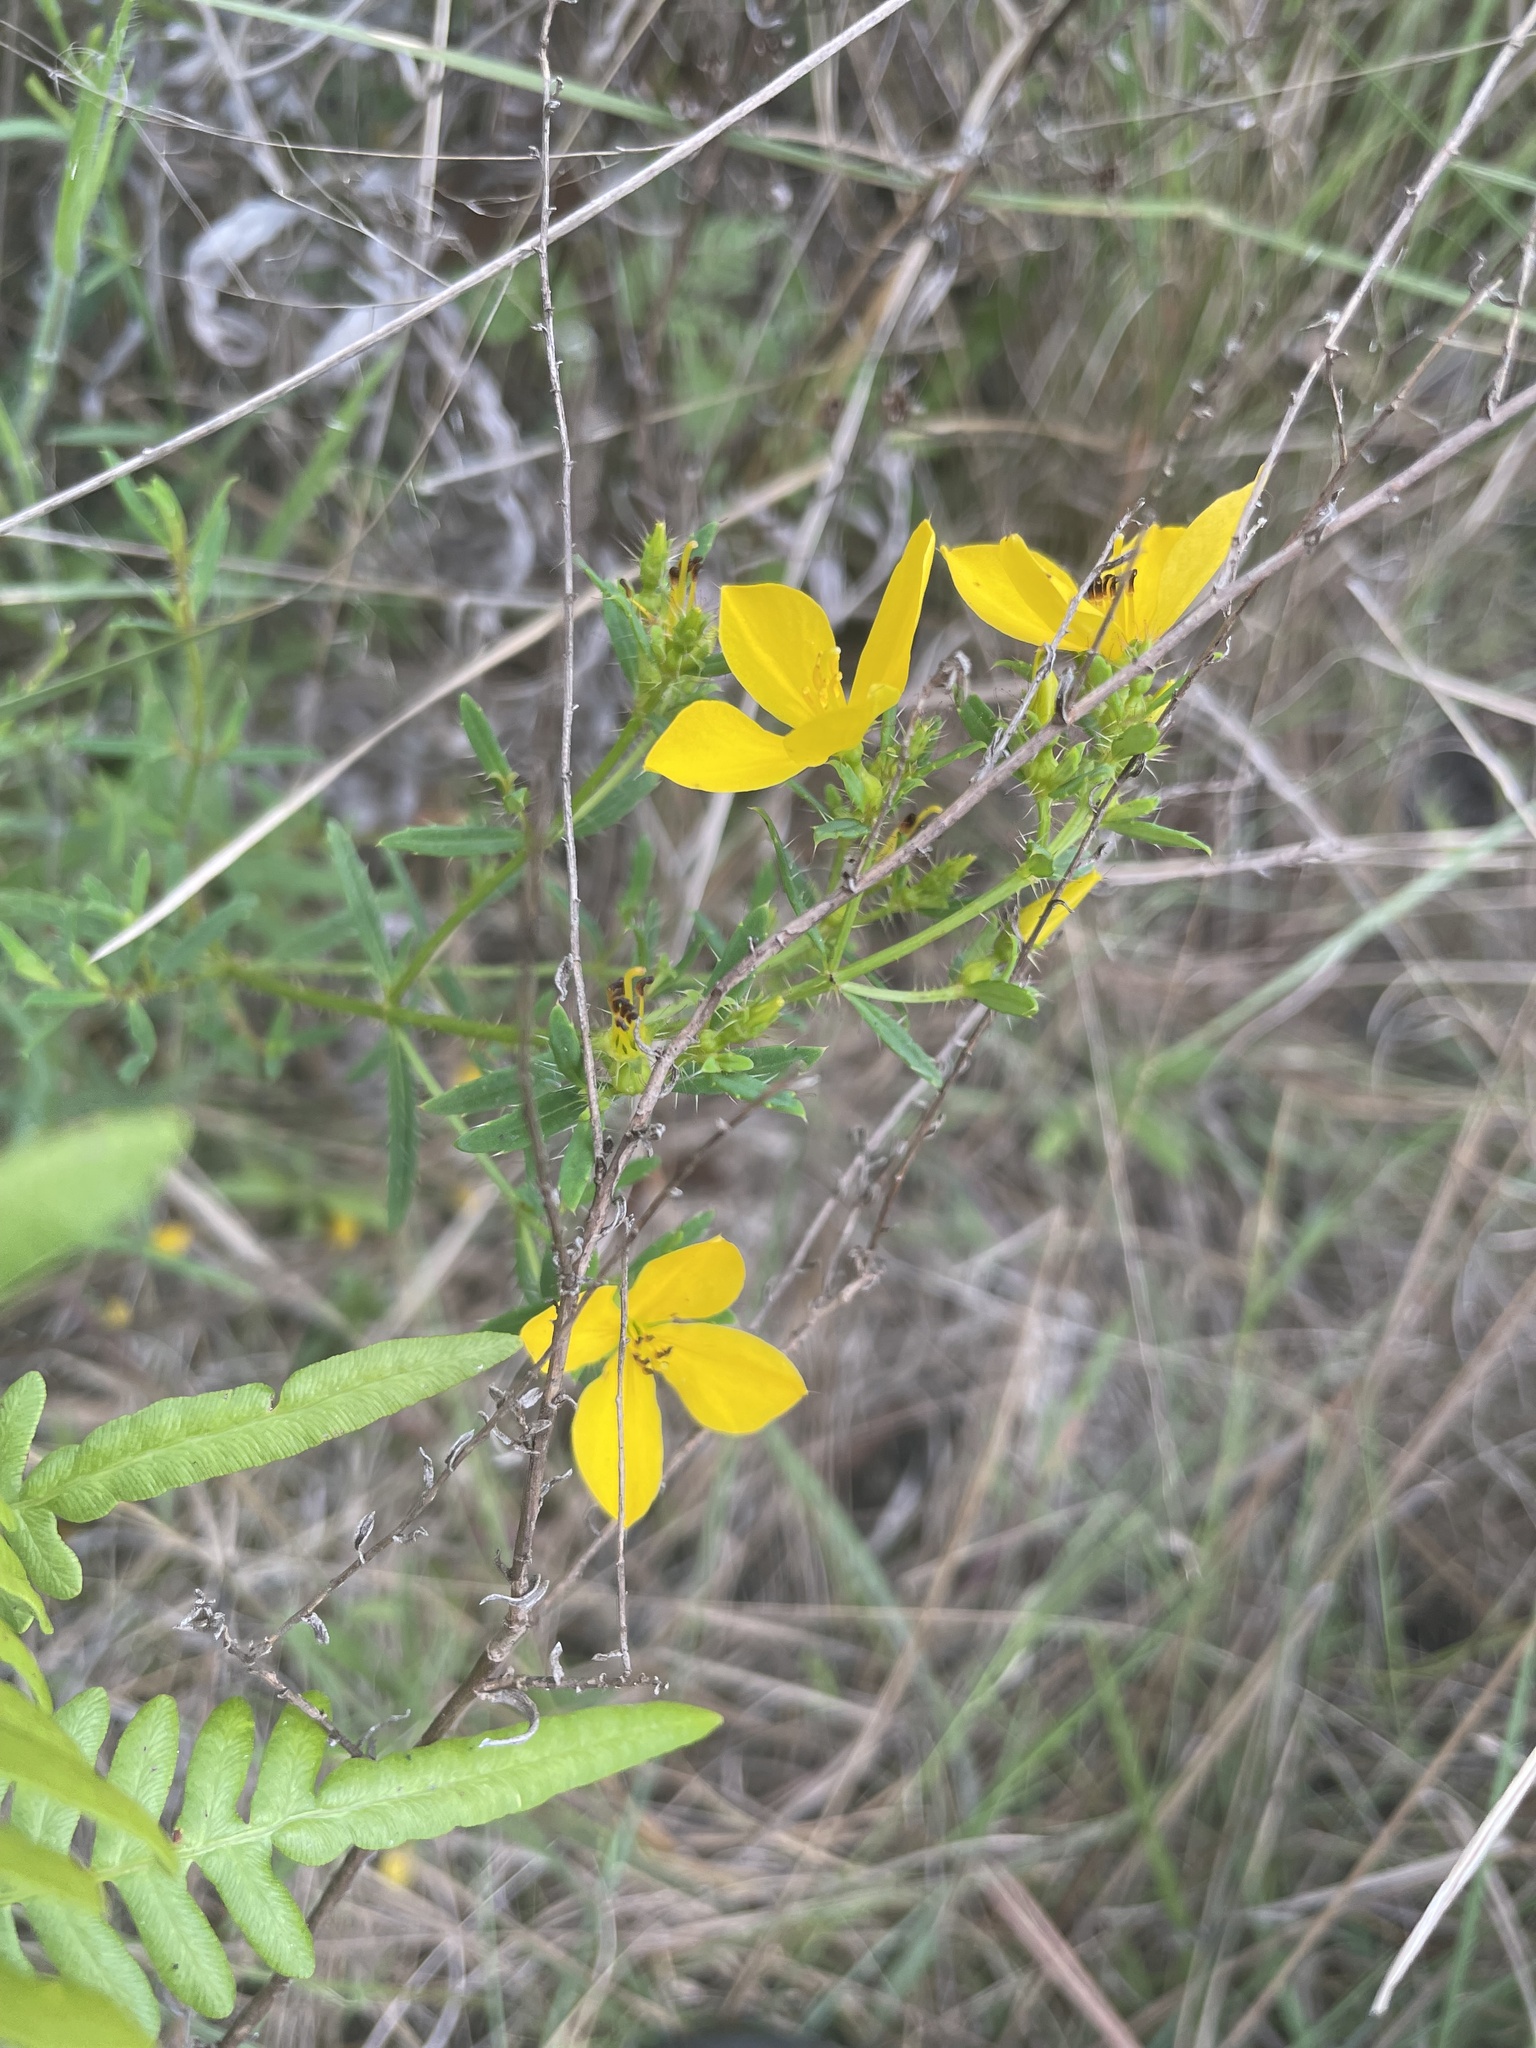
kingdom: Plantae
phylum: Tracheophyta
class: Magnoliopsida
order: Myrtales
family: Melastomataceae
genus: Rhexia
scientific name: Rhexia lutea
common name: Golden meadow-beauty
